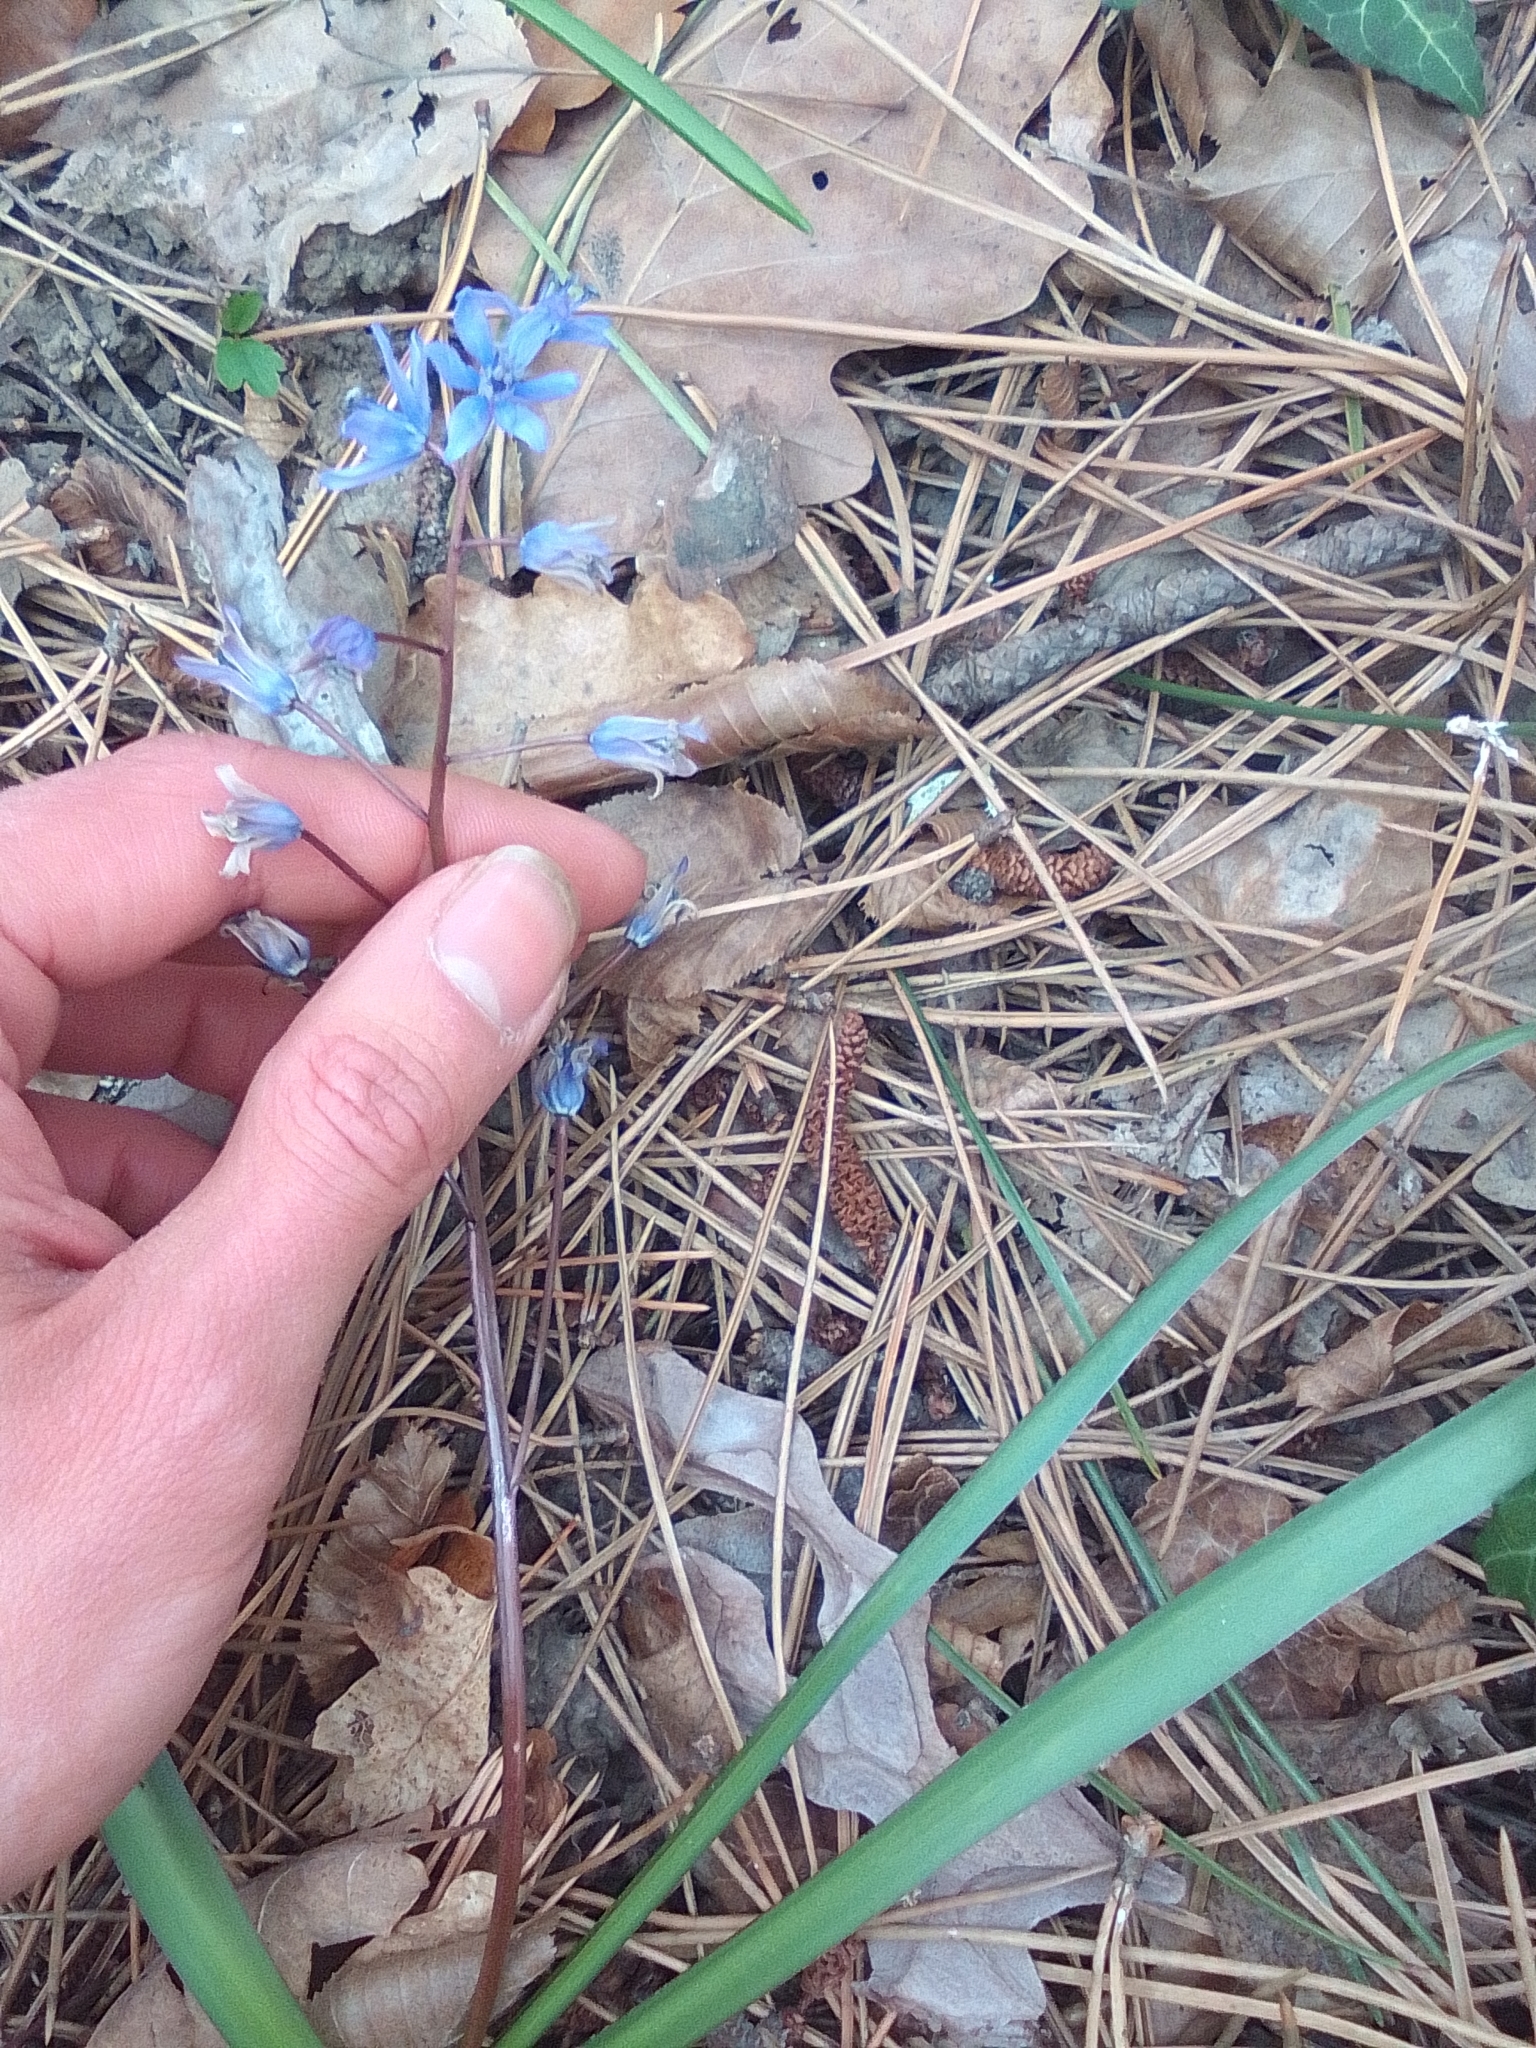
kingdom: Plantae
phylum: Tracheophyta
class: Liliopsida
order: Asparagales
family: Asparagaceae
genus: Scilla
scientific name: Scilla bifolia
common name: Alpine squill
